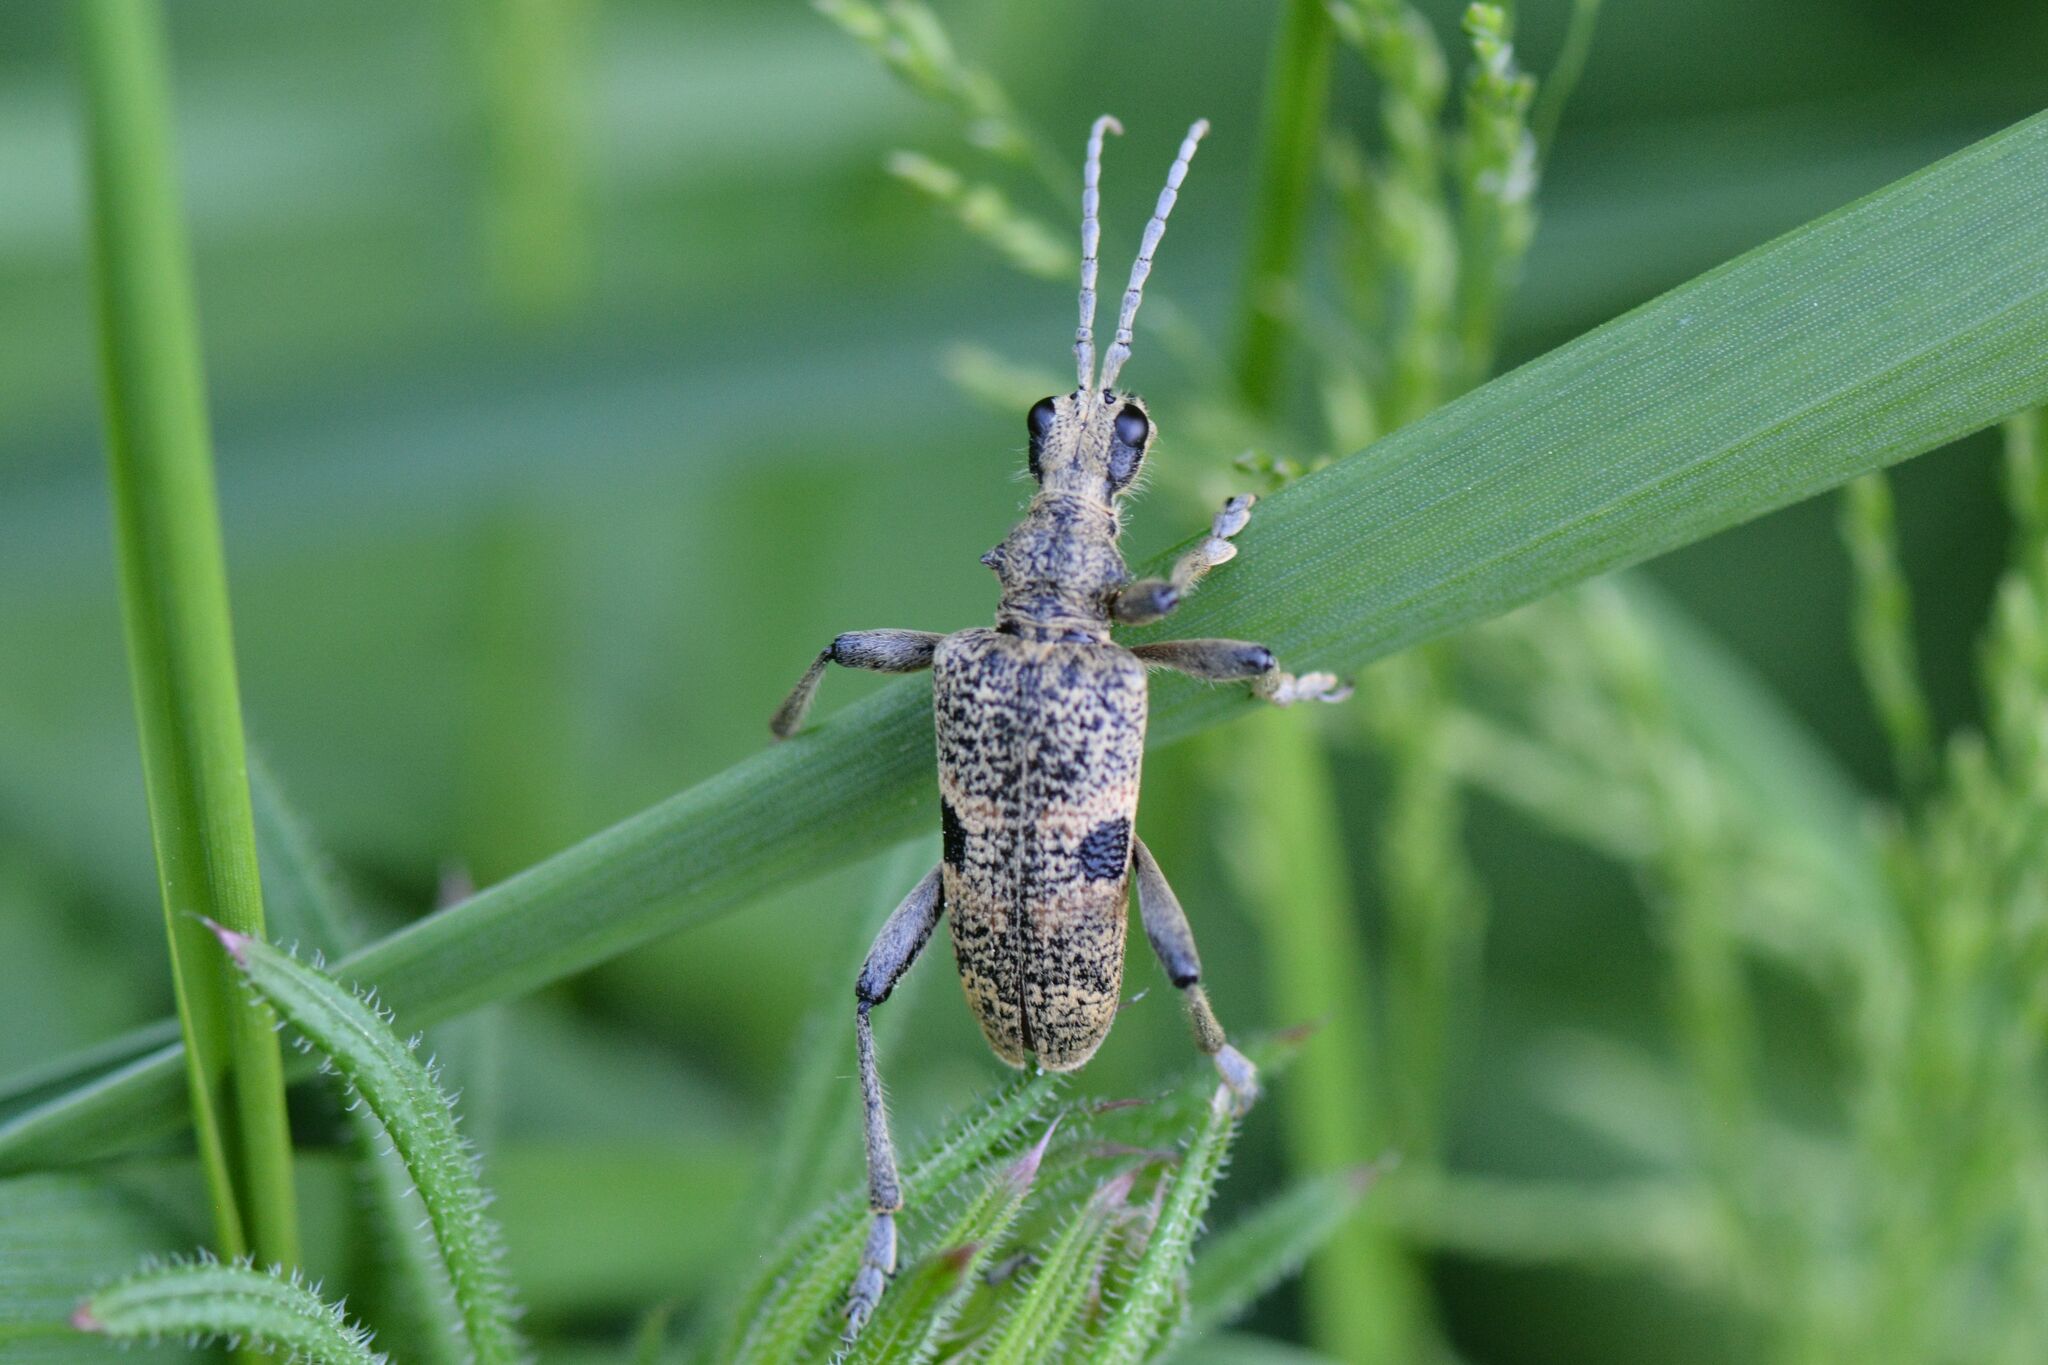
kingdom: Animalia
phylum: Arthropoda
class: Insecta
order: Coleoptera
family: Cerambycidae
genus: Rhagium
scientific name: Rhagium mordax
